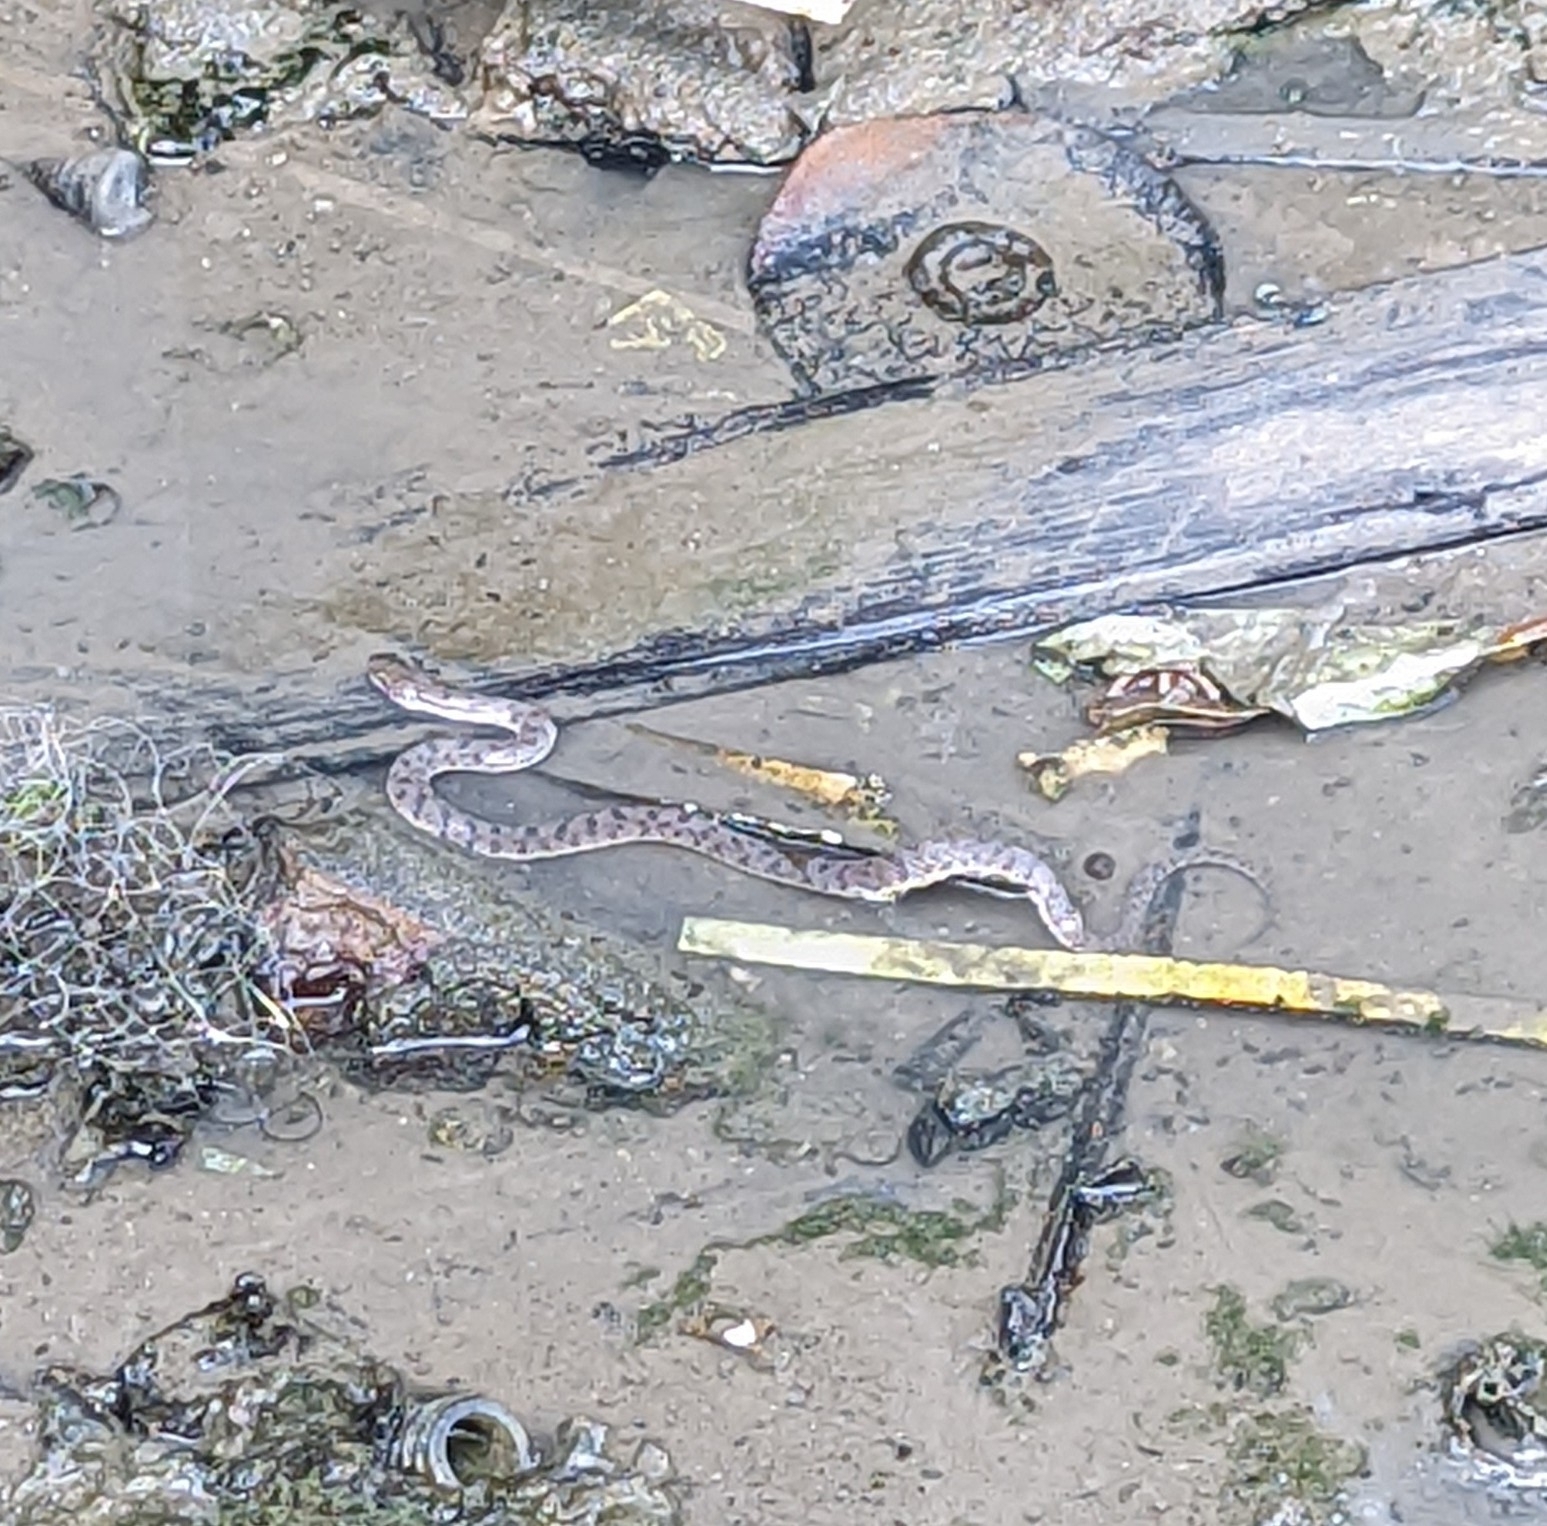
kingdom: Animalia
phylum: Chordata
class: Squamata
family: Homalopsidae
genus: Cerberus
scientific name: Cerberus schneiderii
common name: Southeast asian bockadam
